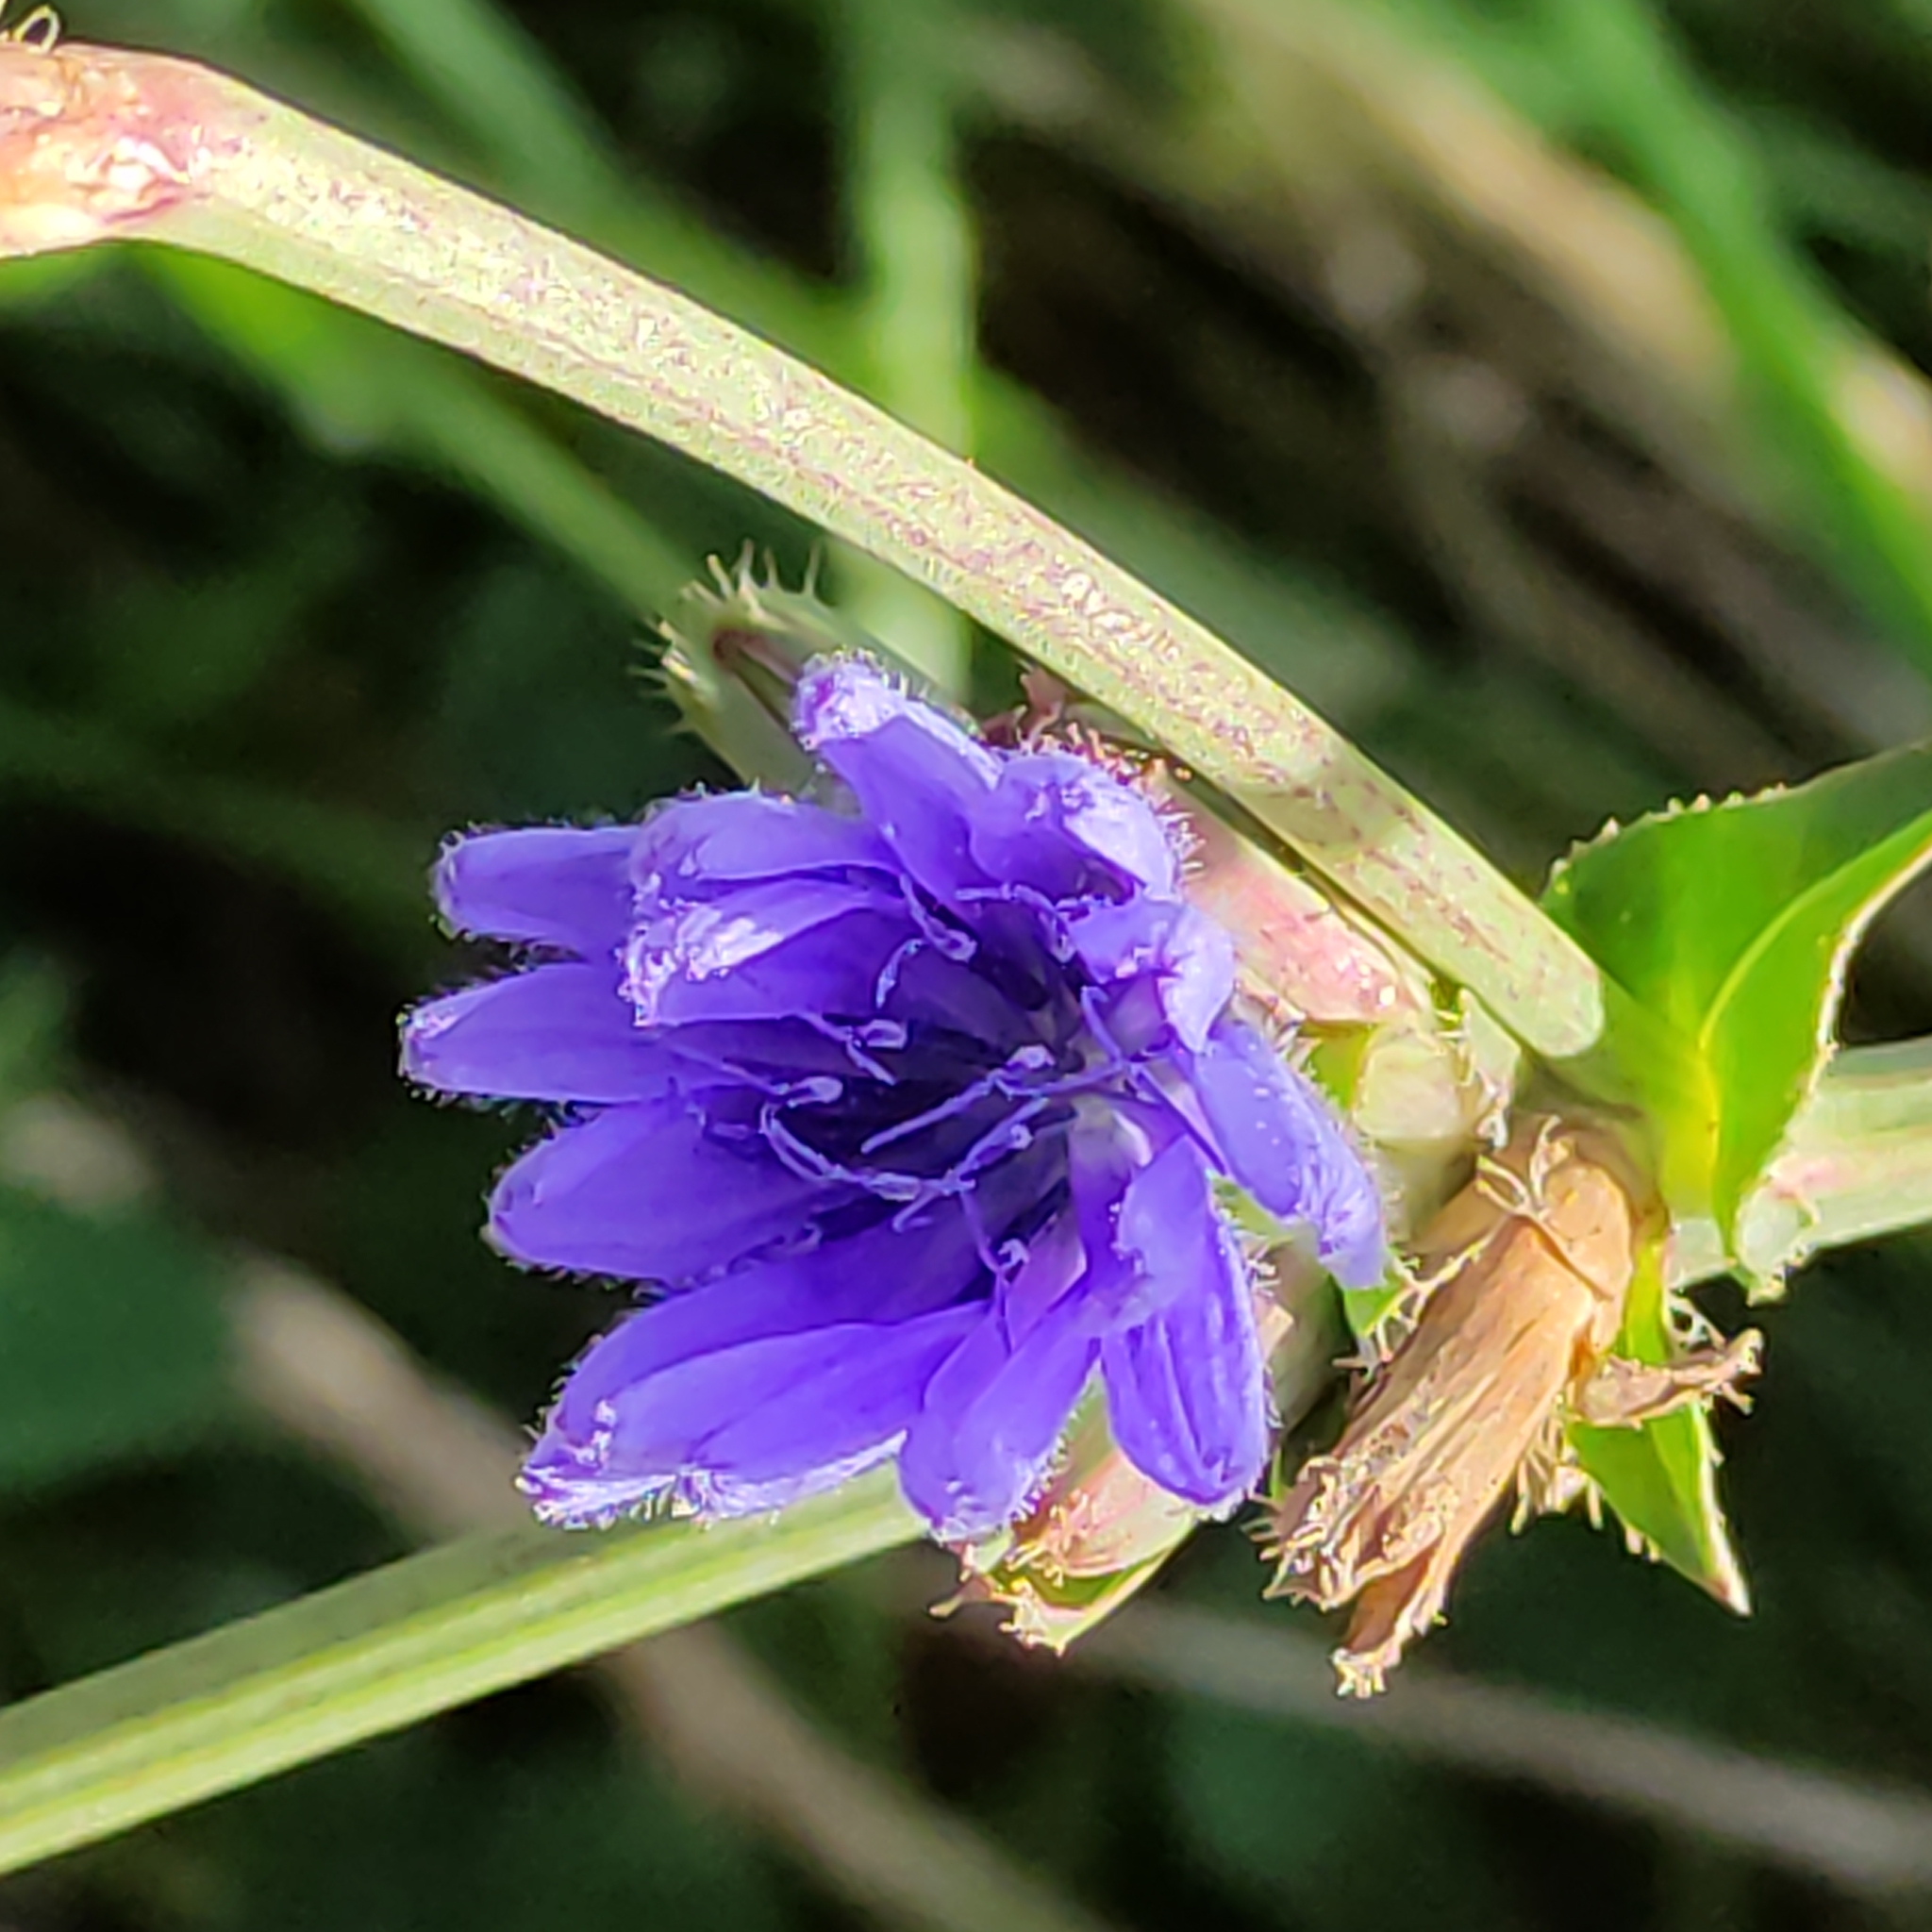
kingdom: Plantae
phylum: Tracheophyta
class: Magnoliopsida
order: Asterales
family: Asteraceae
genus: Cichorium
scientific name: Cichorium intybus
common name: Chicory
